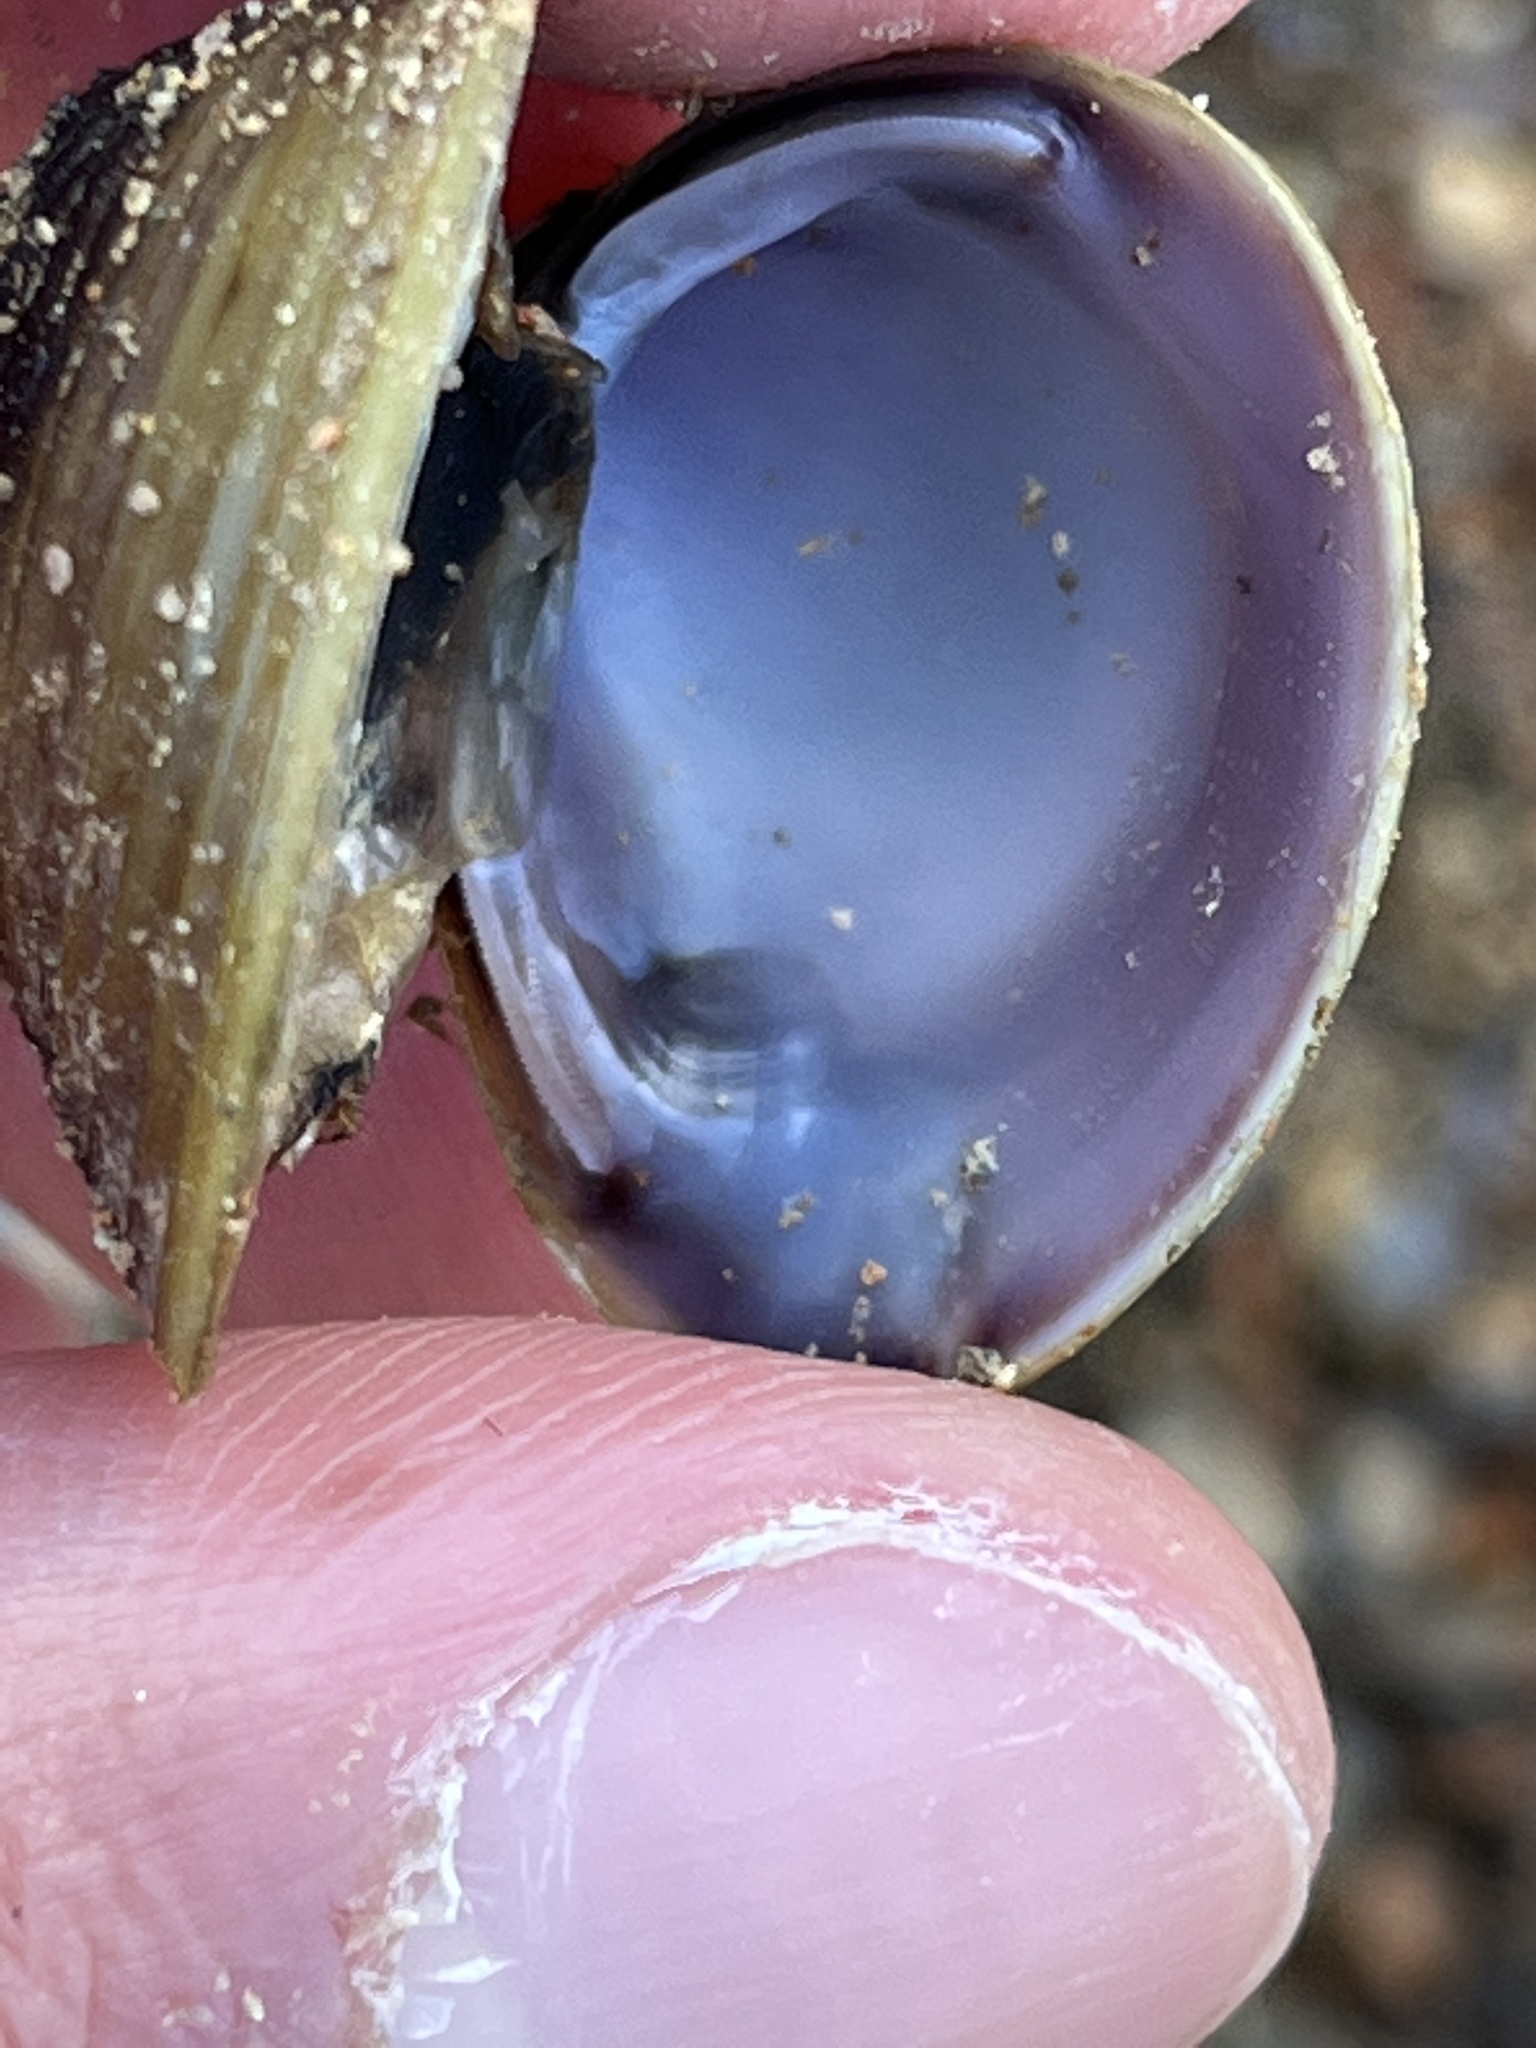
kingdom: Animalia
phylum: Mollusca
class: Bivalvia
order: Venerida
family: Cyrenidae
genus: Corbicula
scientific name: Corbicula fluminea
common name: Asian clam
